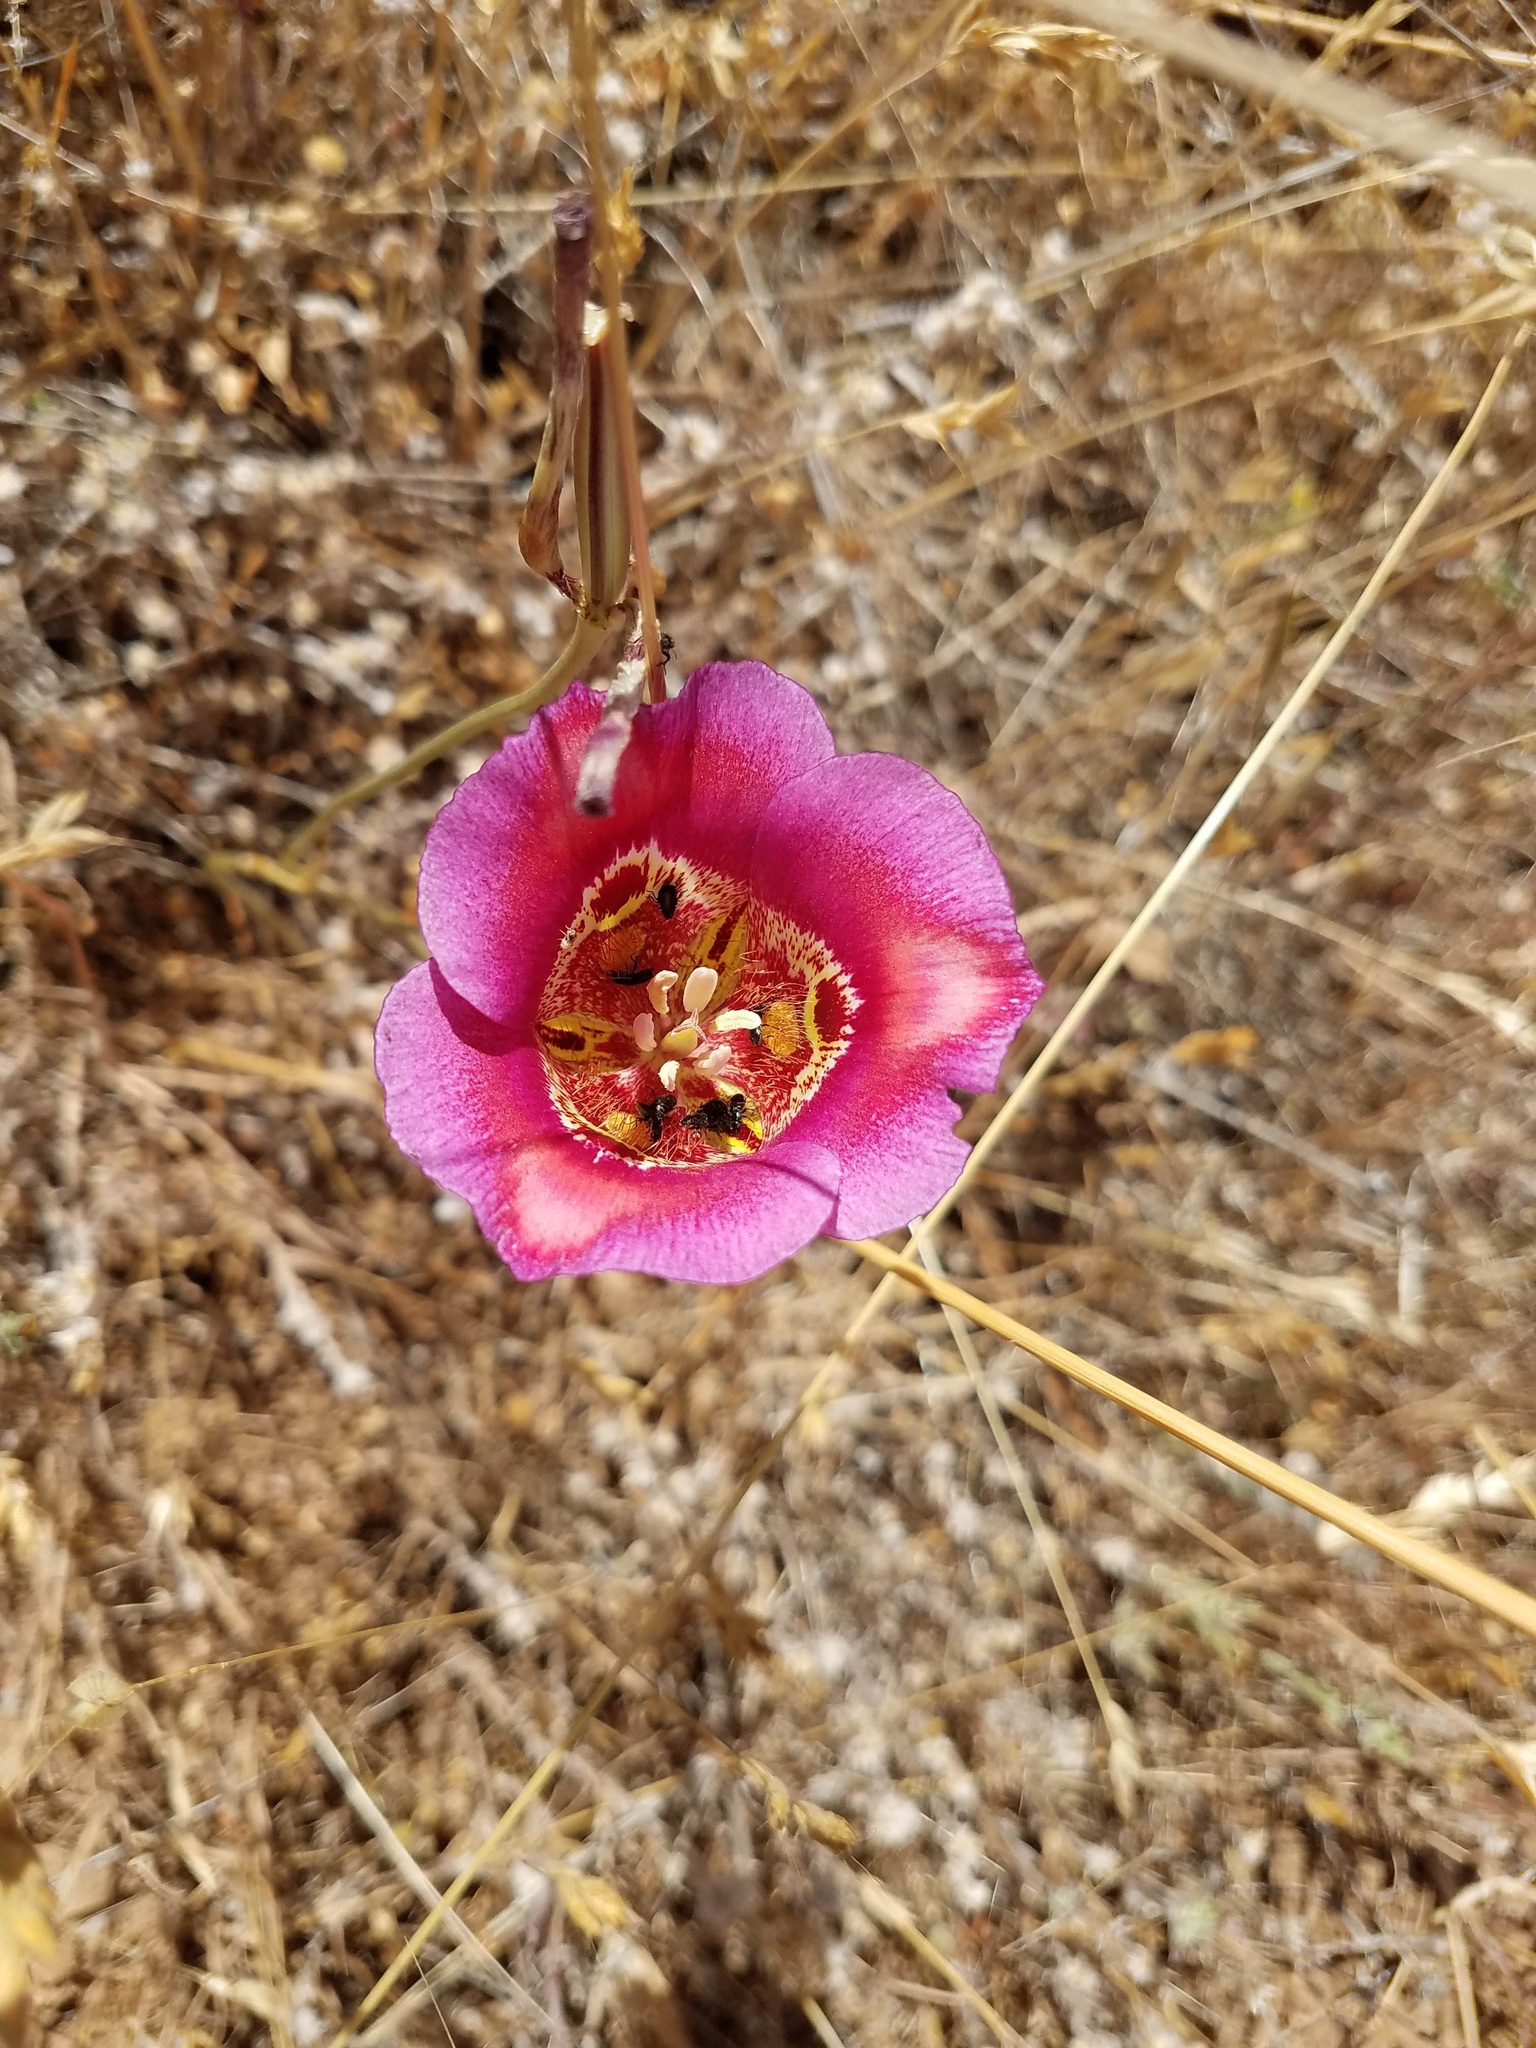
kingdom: Plantae
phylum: Tracheophyta
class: Liliopsida
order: Liliales
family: Liliaceae
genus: Calochortus
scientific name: Calochortus venustus
